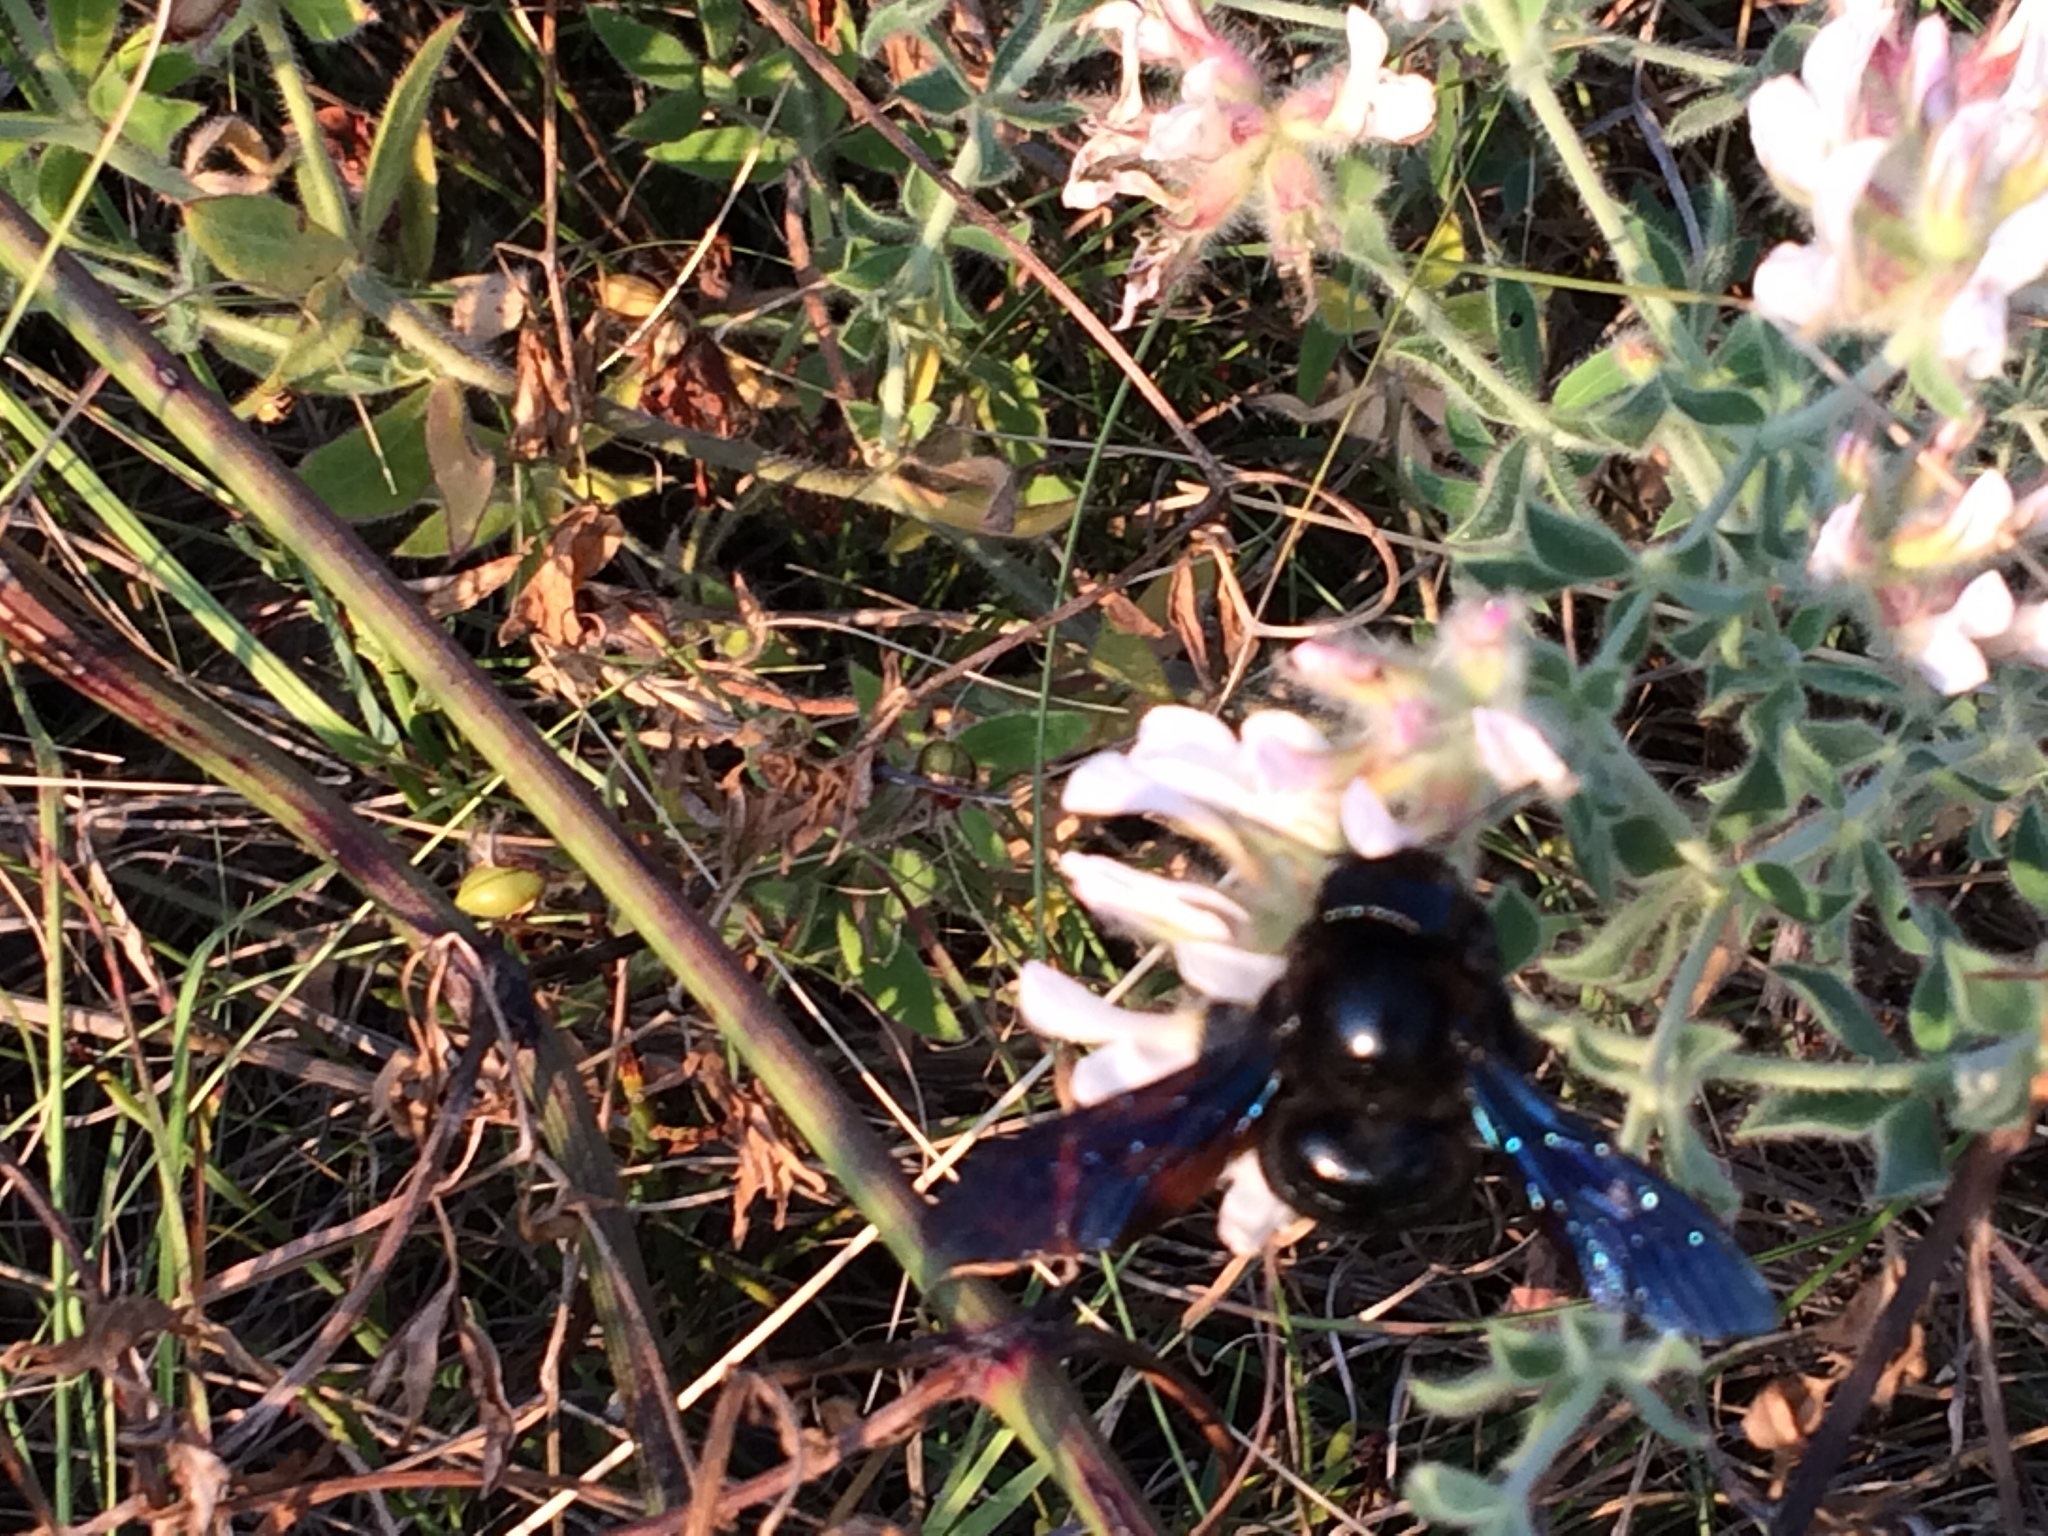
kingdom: Animalia
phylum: Arthropoda
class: Insecta
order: Hymenoptera
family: Apidae
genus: Xylocopa
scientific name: Xylocopa violacea
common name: Violet carpenter bee
